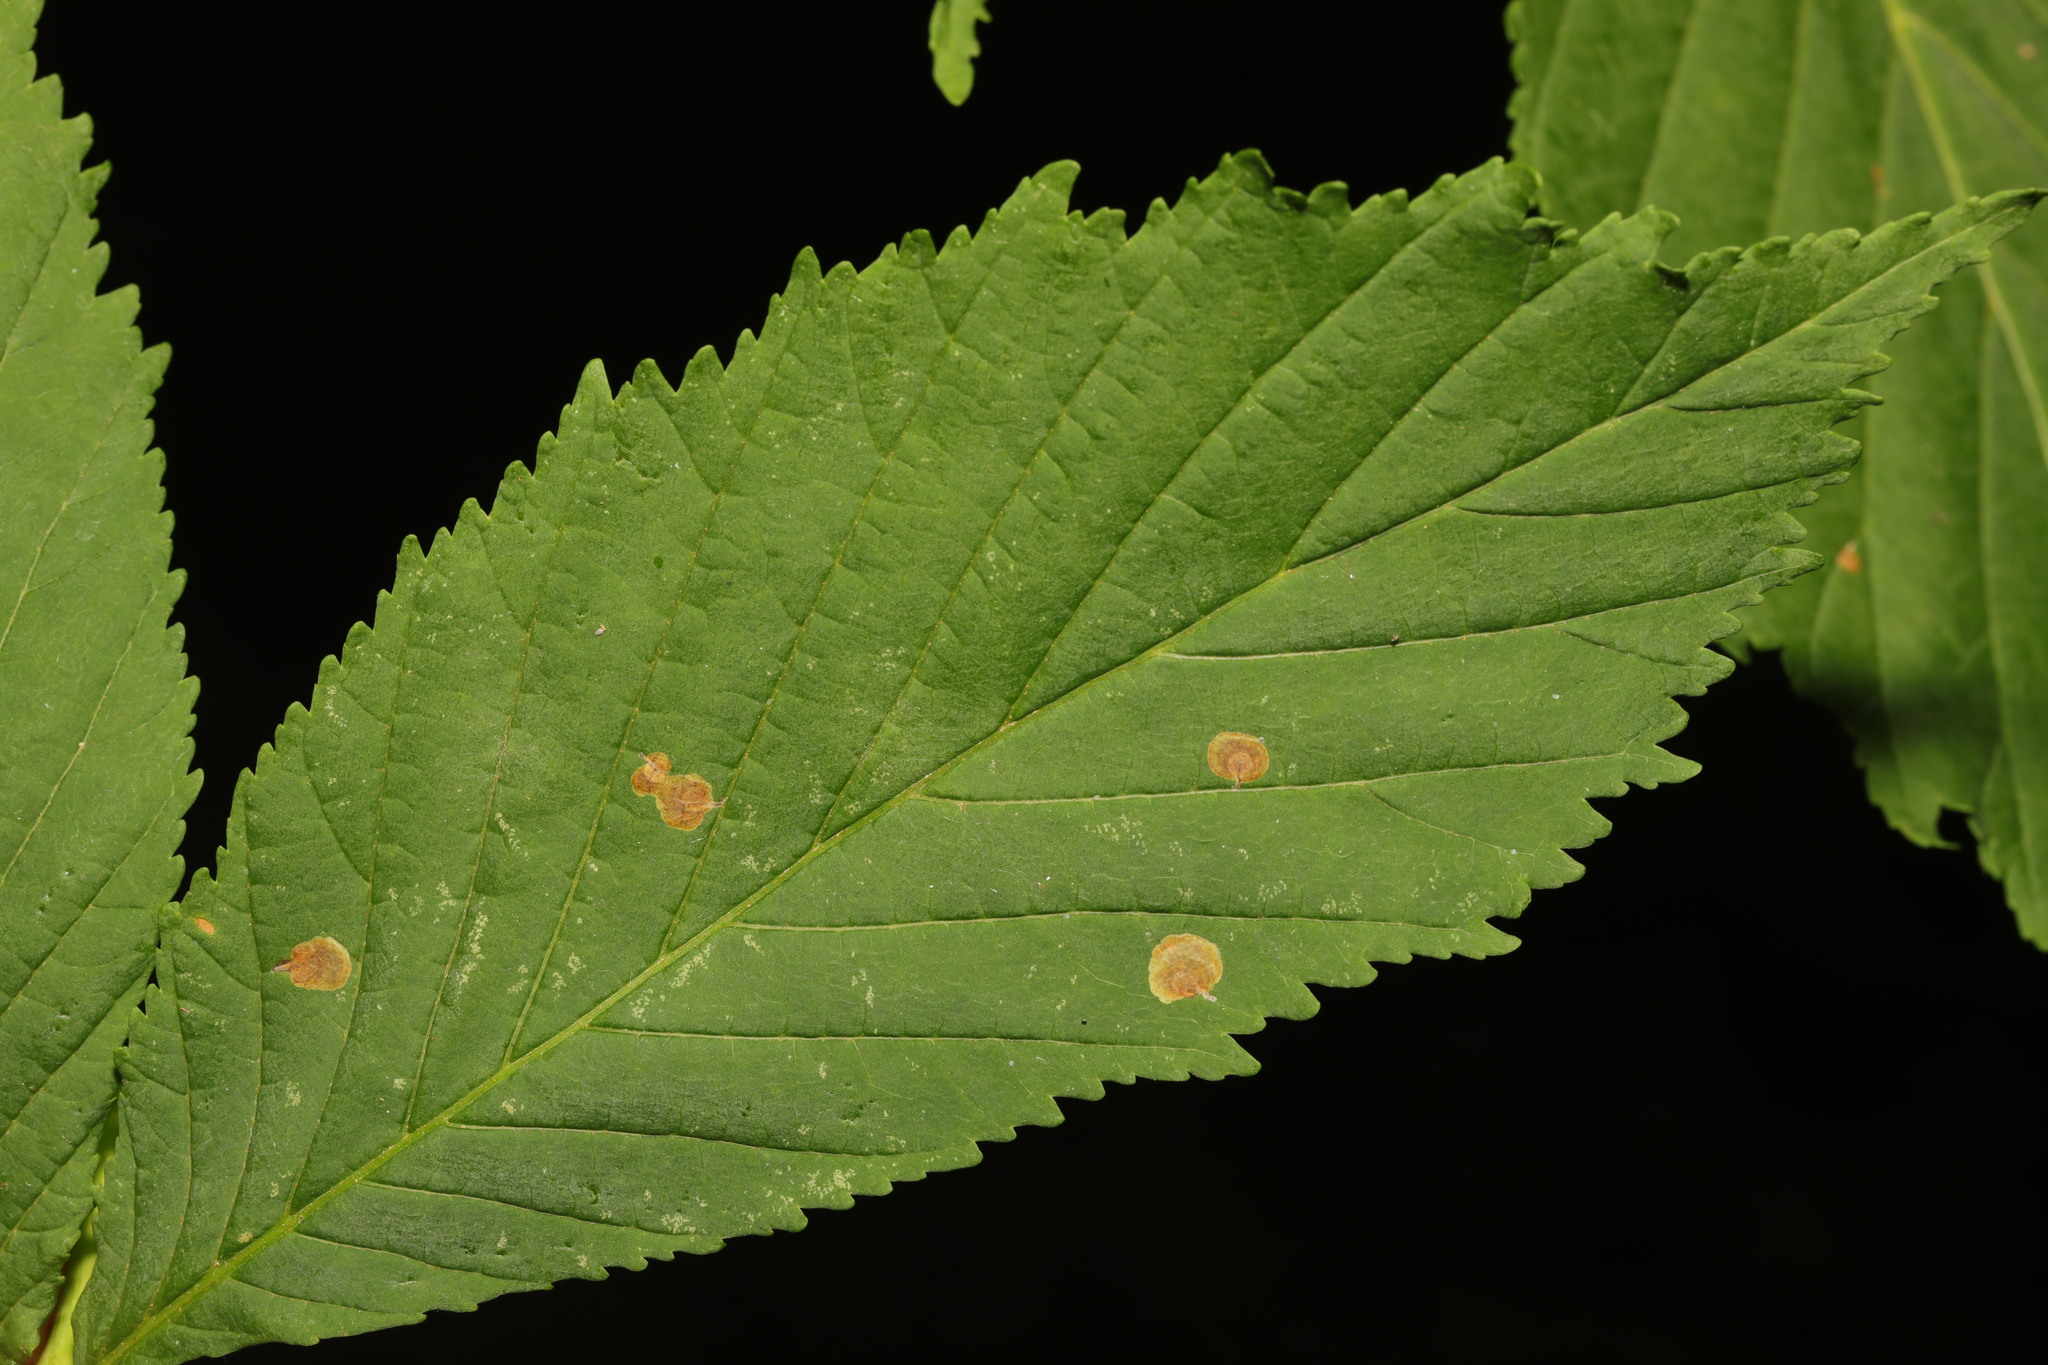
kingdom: Animalia
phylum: Arthropoda
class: Insecta
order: Lepidoptera
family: Gracillariidae
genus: Cameraria
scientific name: Cameraria ohridella
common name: Horse-chestnut leaf-miner
